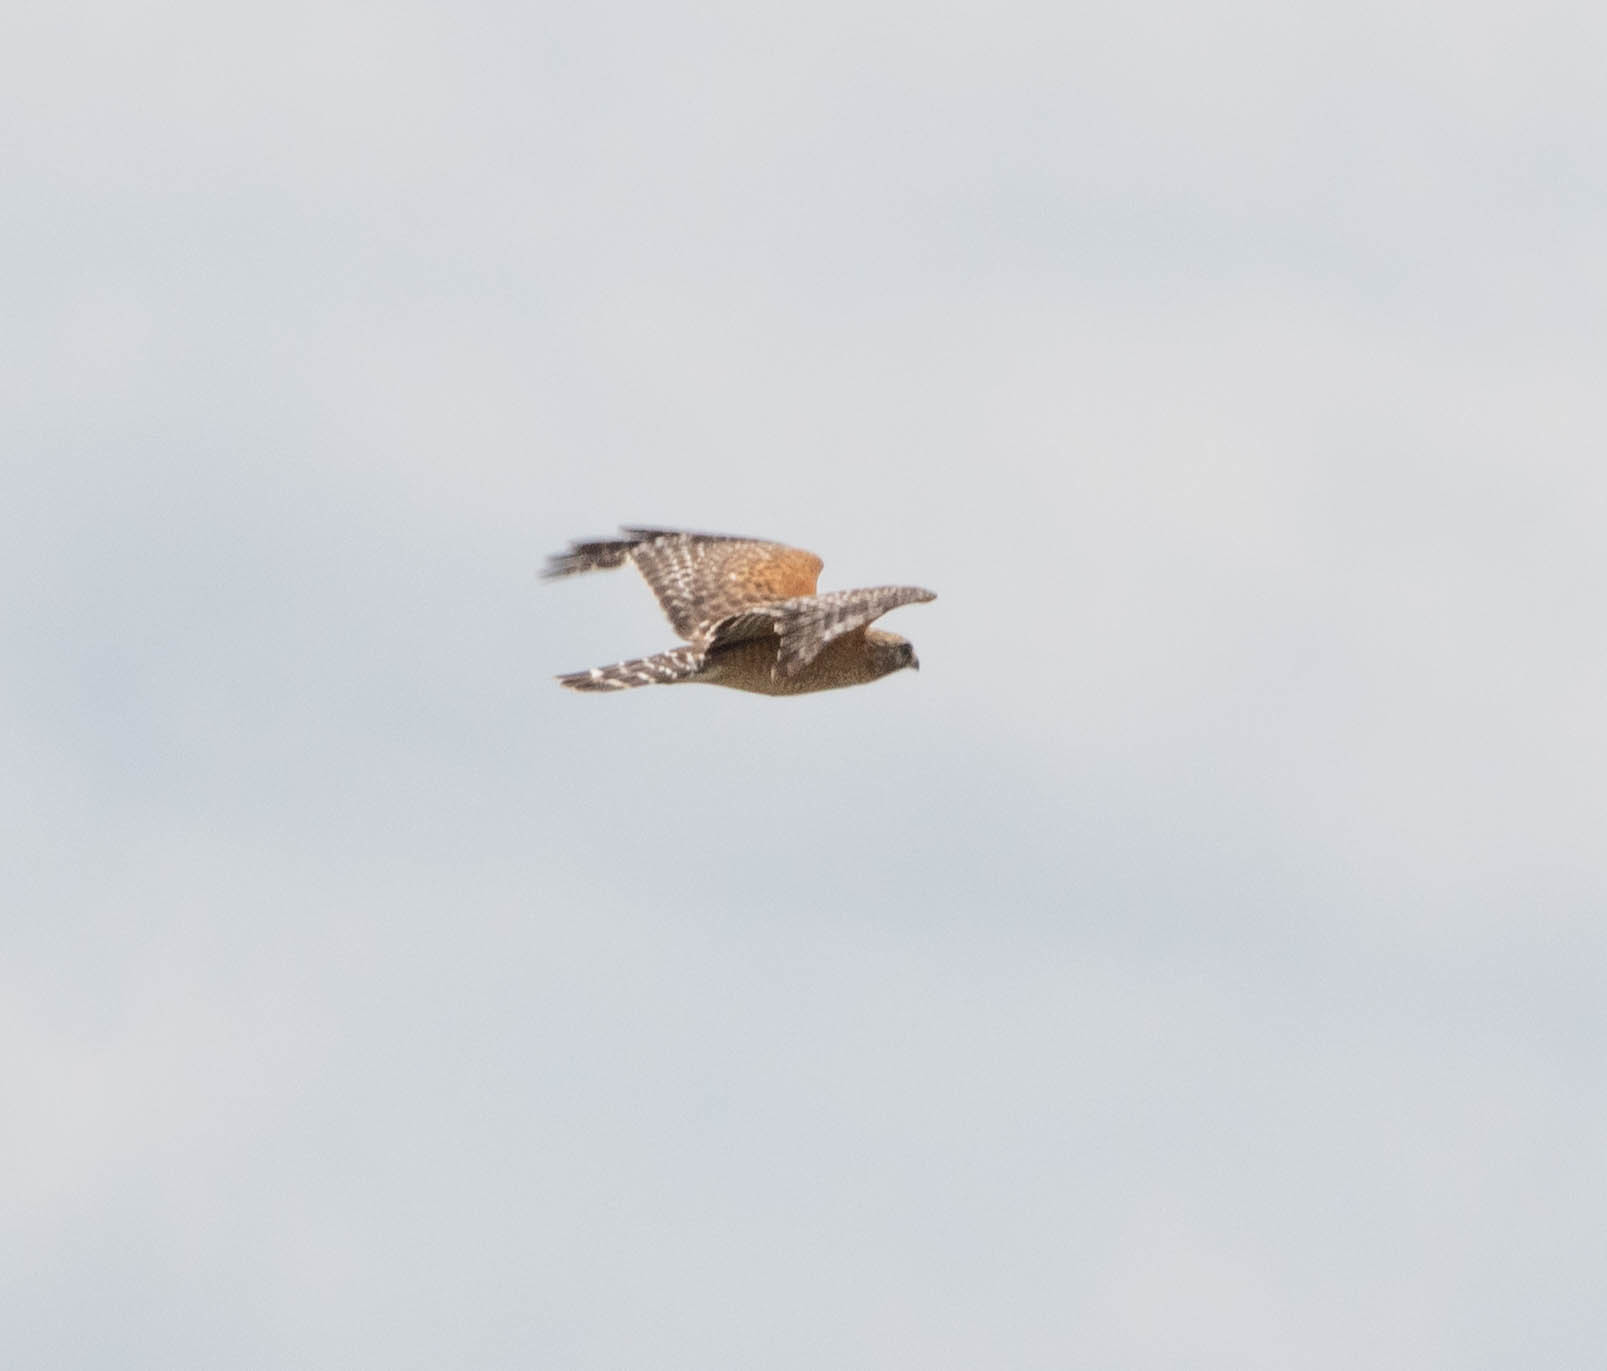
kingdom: Animalia
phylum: Chordata
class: Aves
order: Accipitriformes
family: Accipitridae
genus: Buteo
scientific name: Buteo lineatus
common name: Red-shouldered hawk
